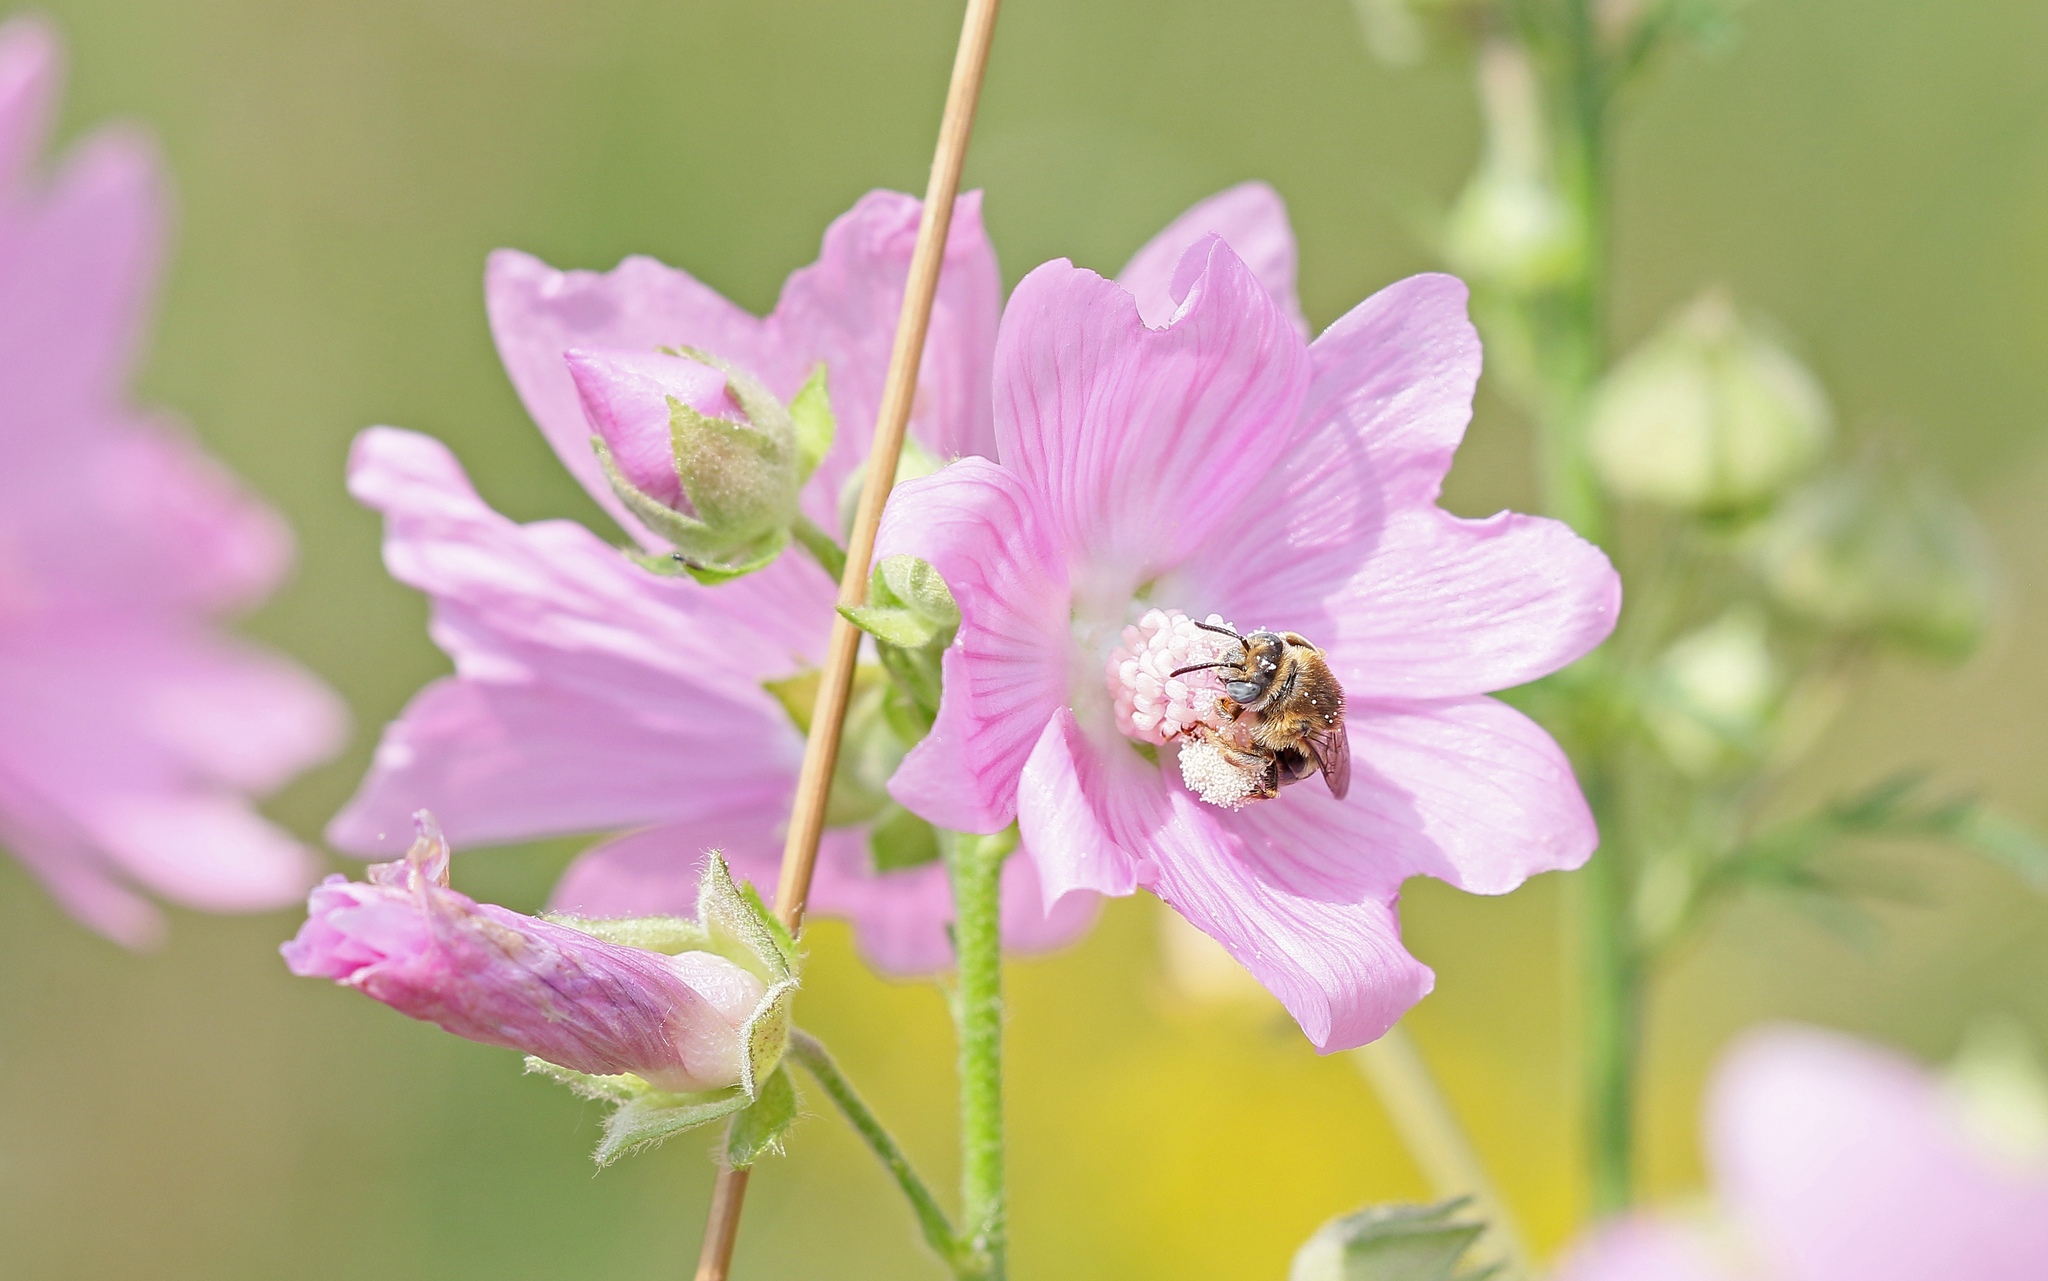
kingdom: Animalia
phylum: Arthropoda
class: Insecta
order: Hymenoptera
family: Apidae
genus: Tetralonia
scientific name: Tetralonia malvae
